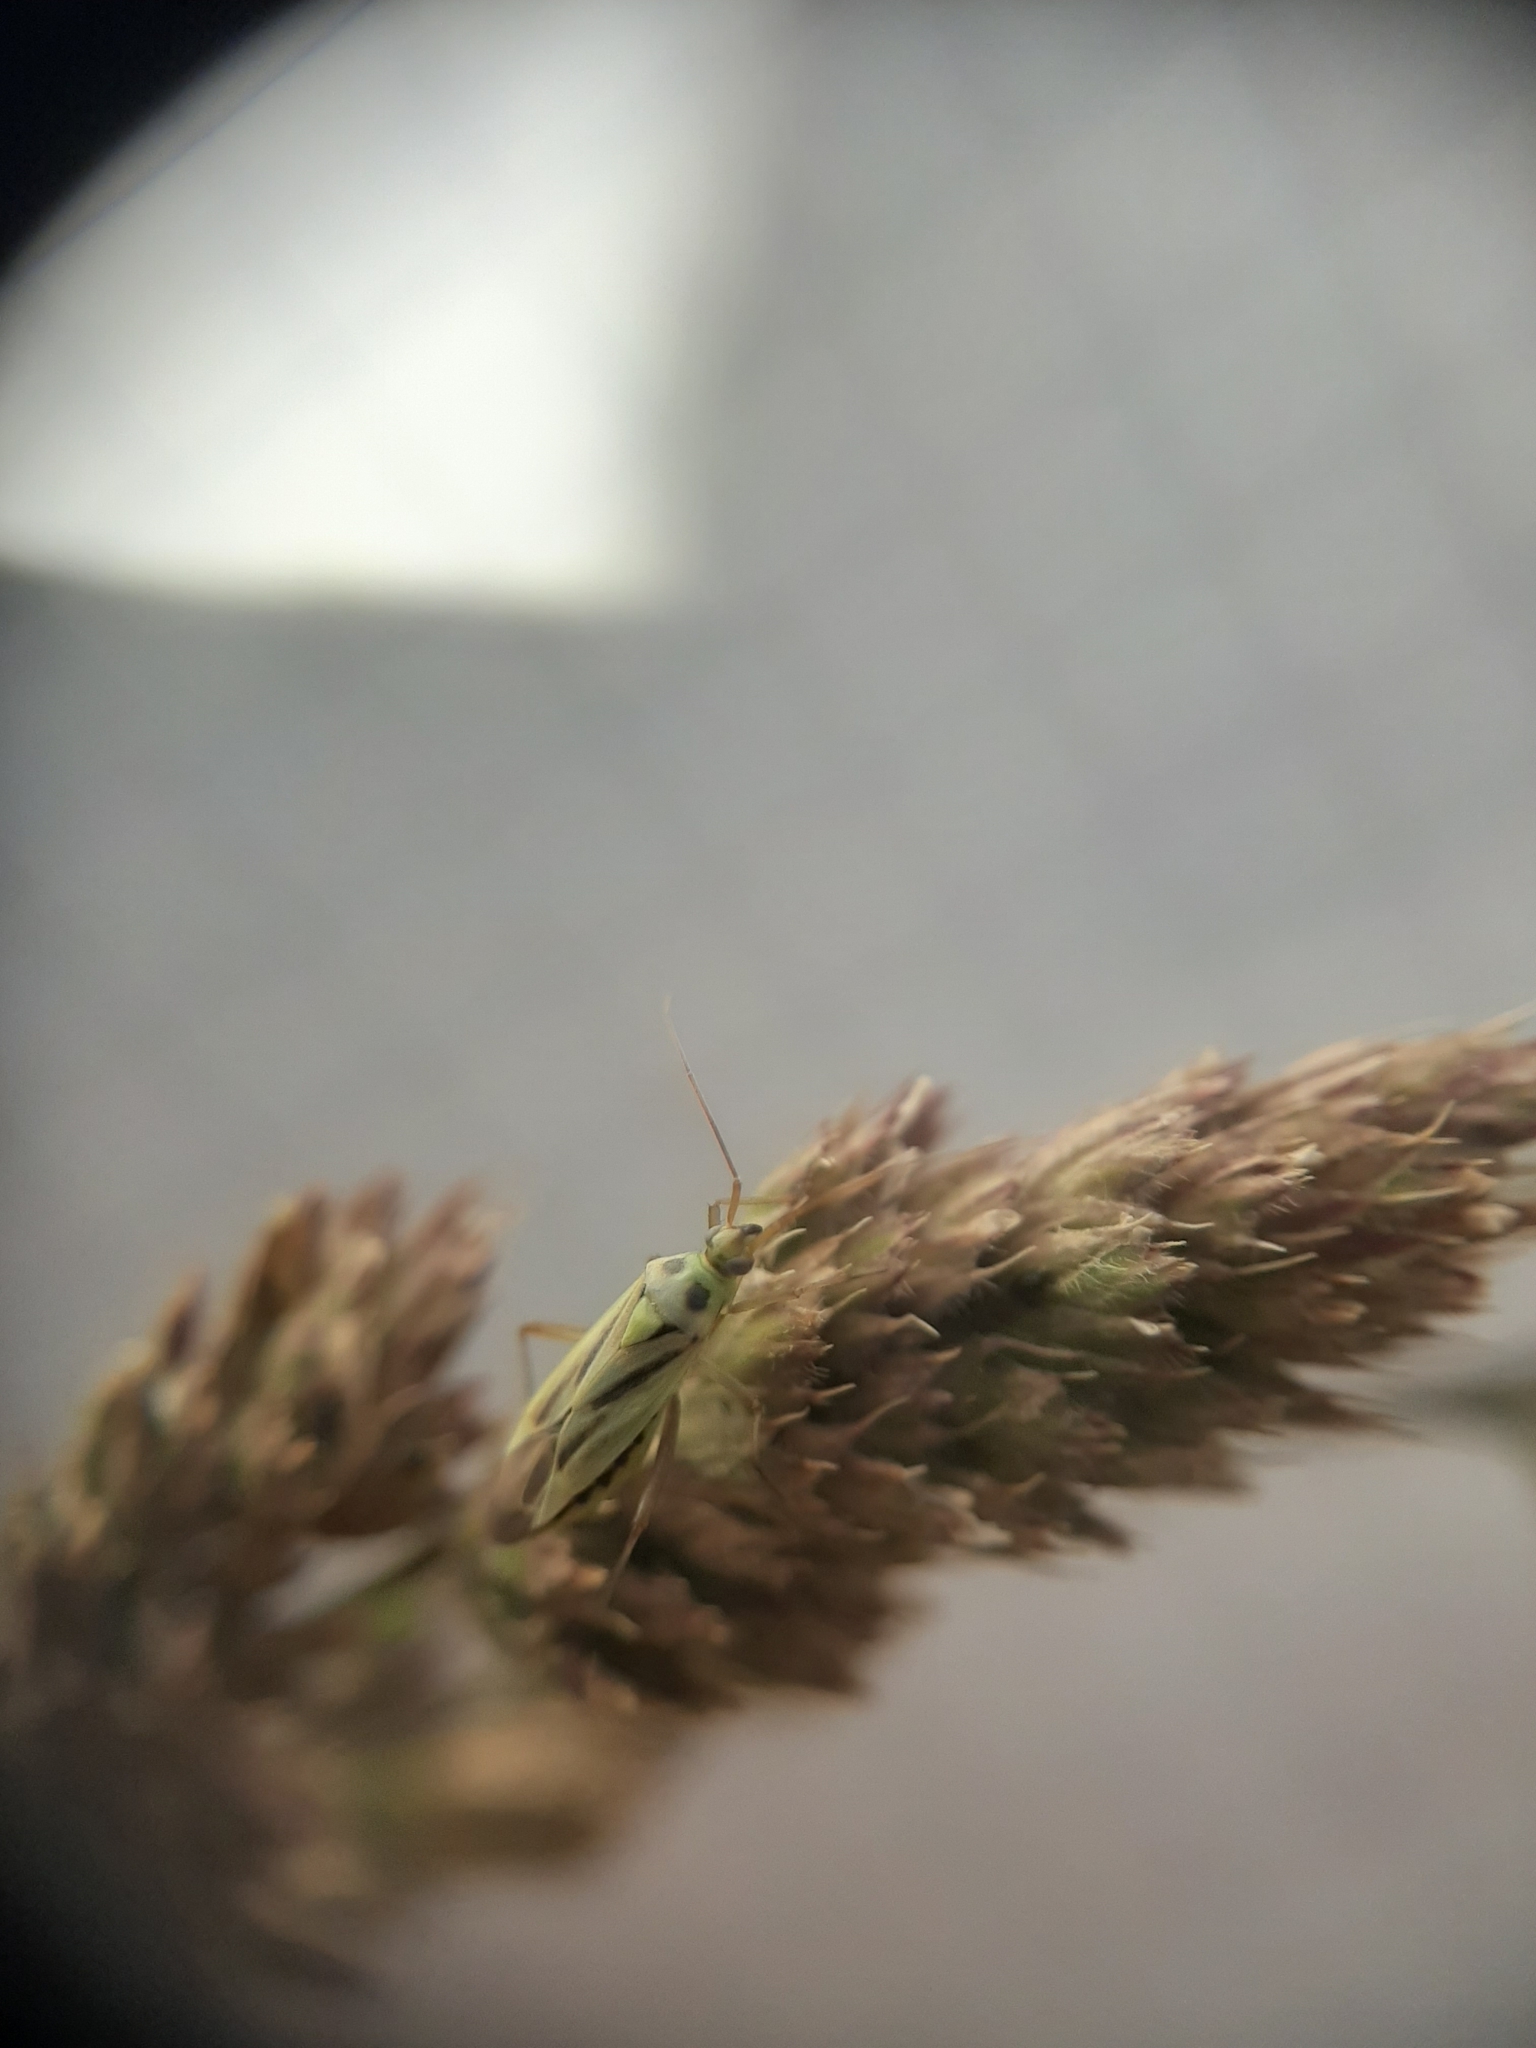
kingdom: Animalia
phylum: Arthropoda
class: Insecta
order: Hemiptera
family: Miridae
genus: Closterotomus
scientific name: Closterotomus norvegicus
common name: Plant bug
